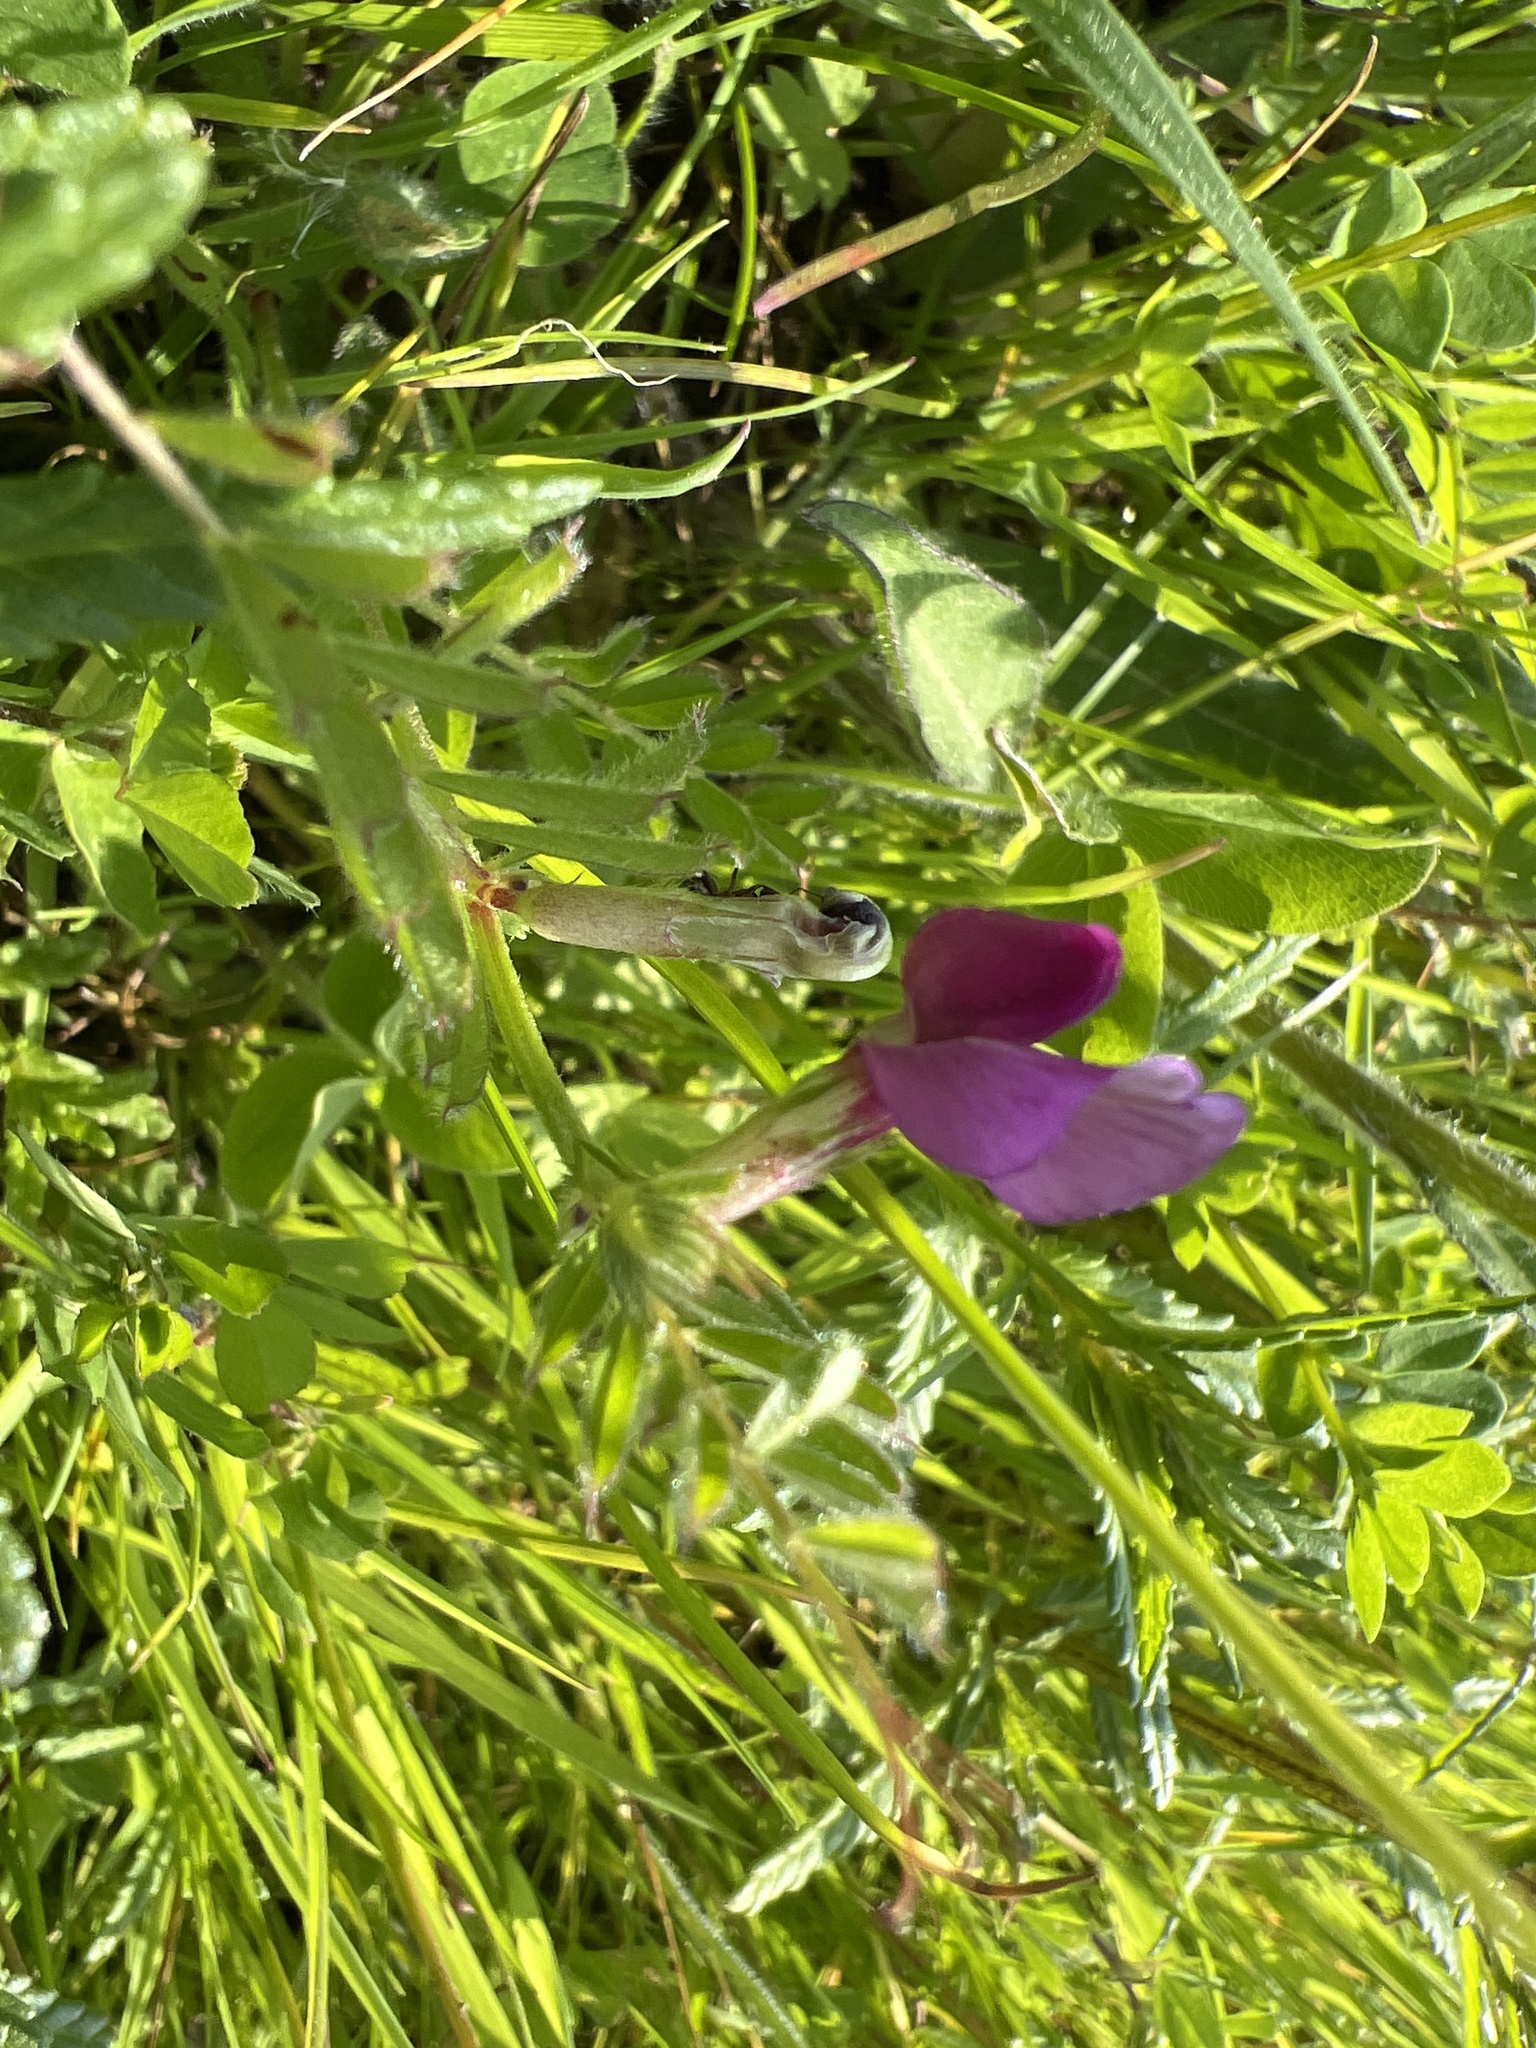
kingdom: Plantae
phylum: Tracheophyta
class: Magnoliopsida
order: Fabales
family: Fabaceae
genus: Vicia
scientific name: Vicia sativa
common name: Garden vetch
